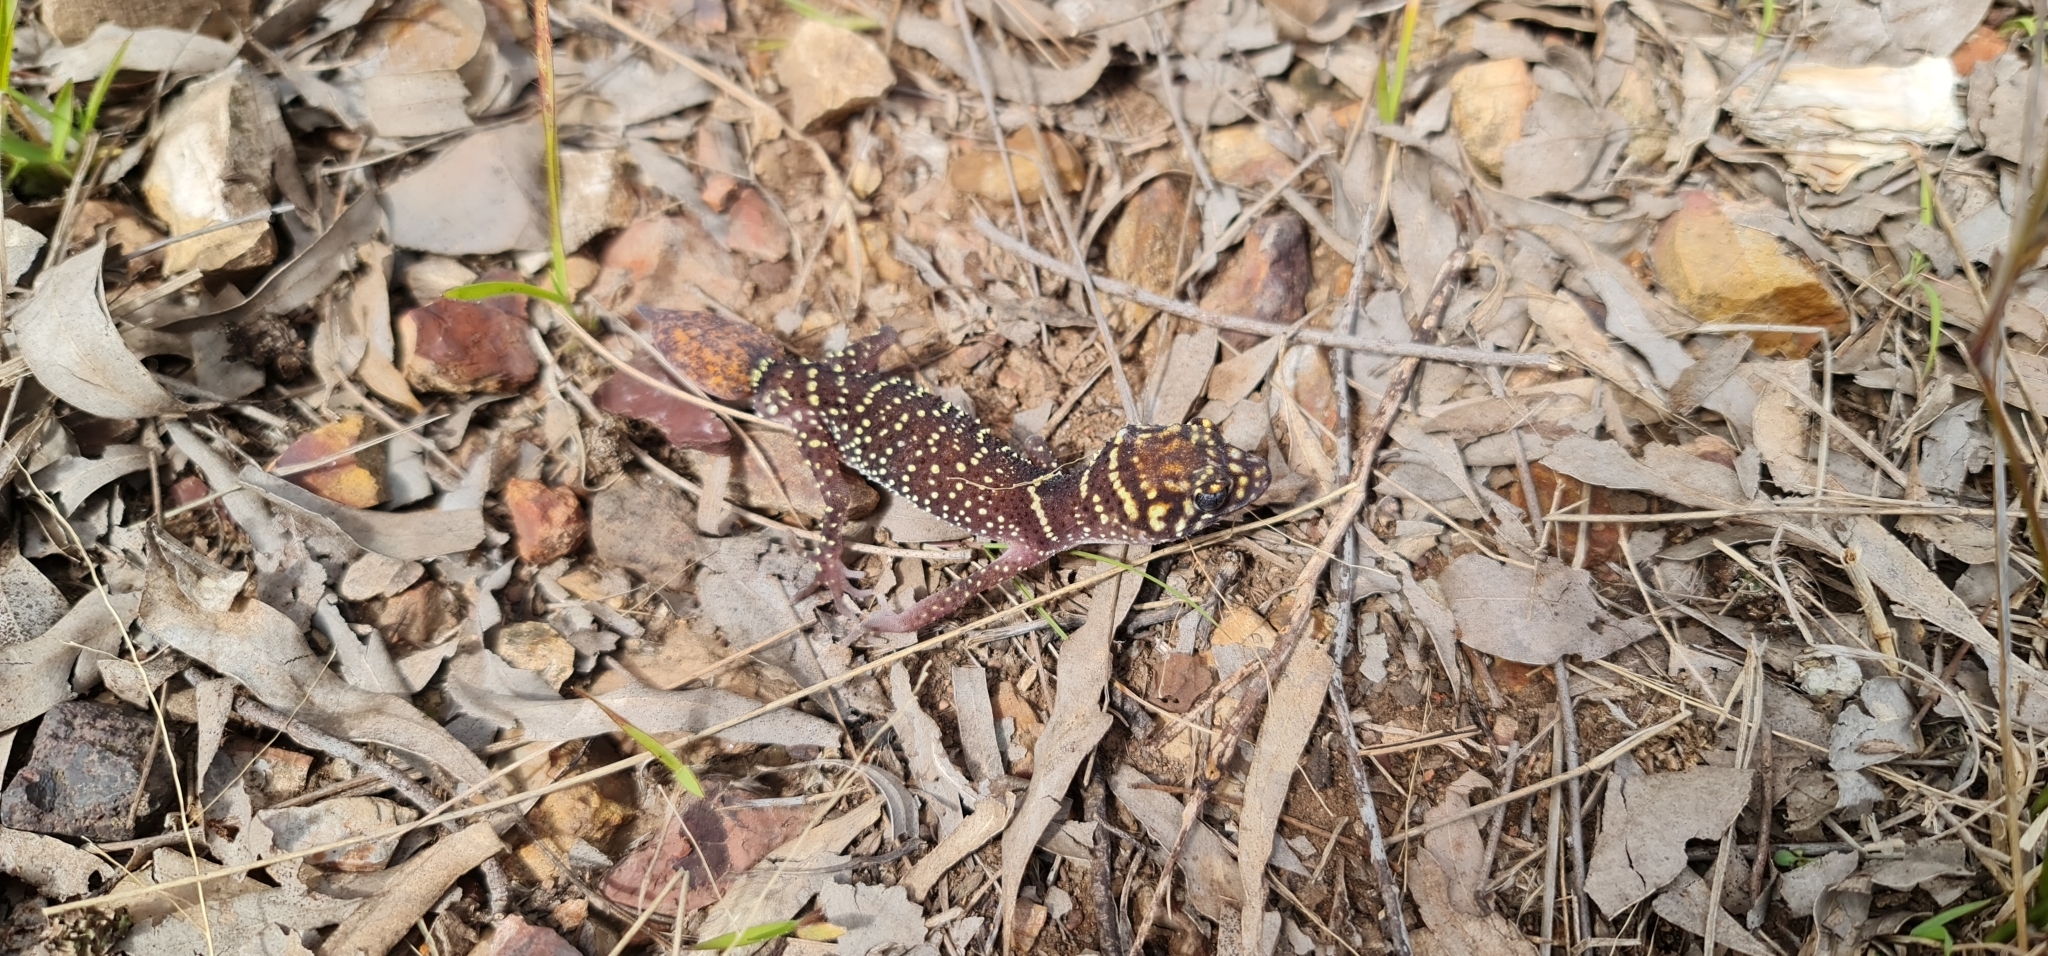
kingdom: Animalia
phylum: Chordata
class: Squamata
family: Carphodactylidae
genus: Underwoodisaurus
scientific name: Underwoodisaurus milii
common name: Barking gecko
